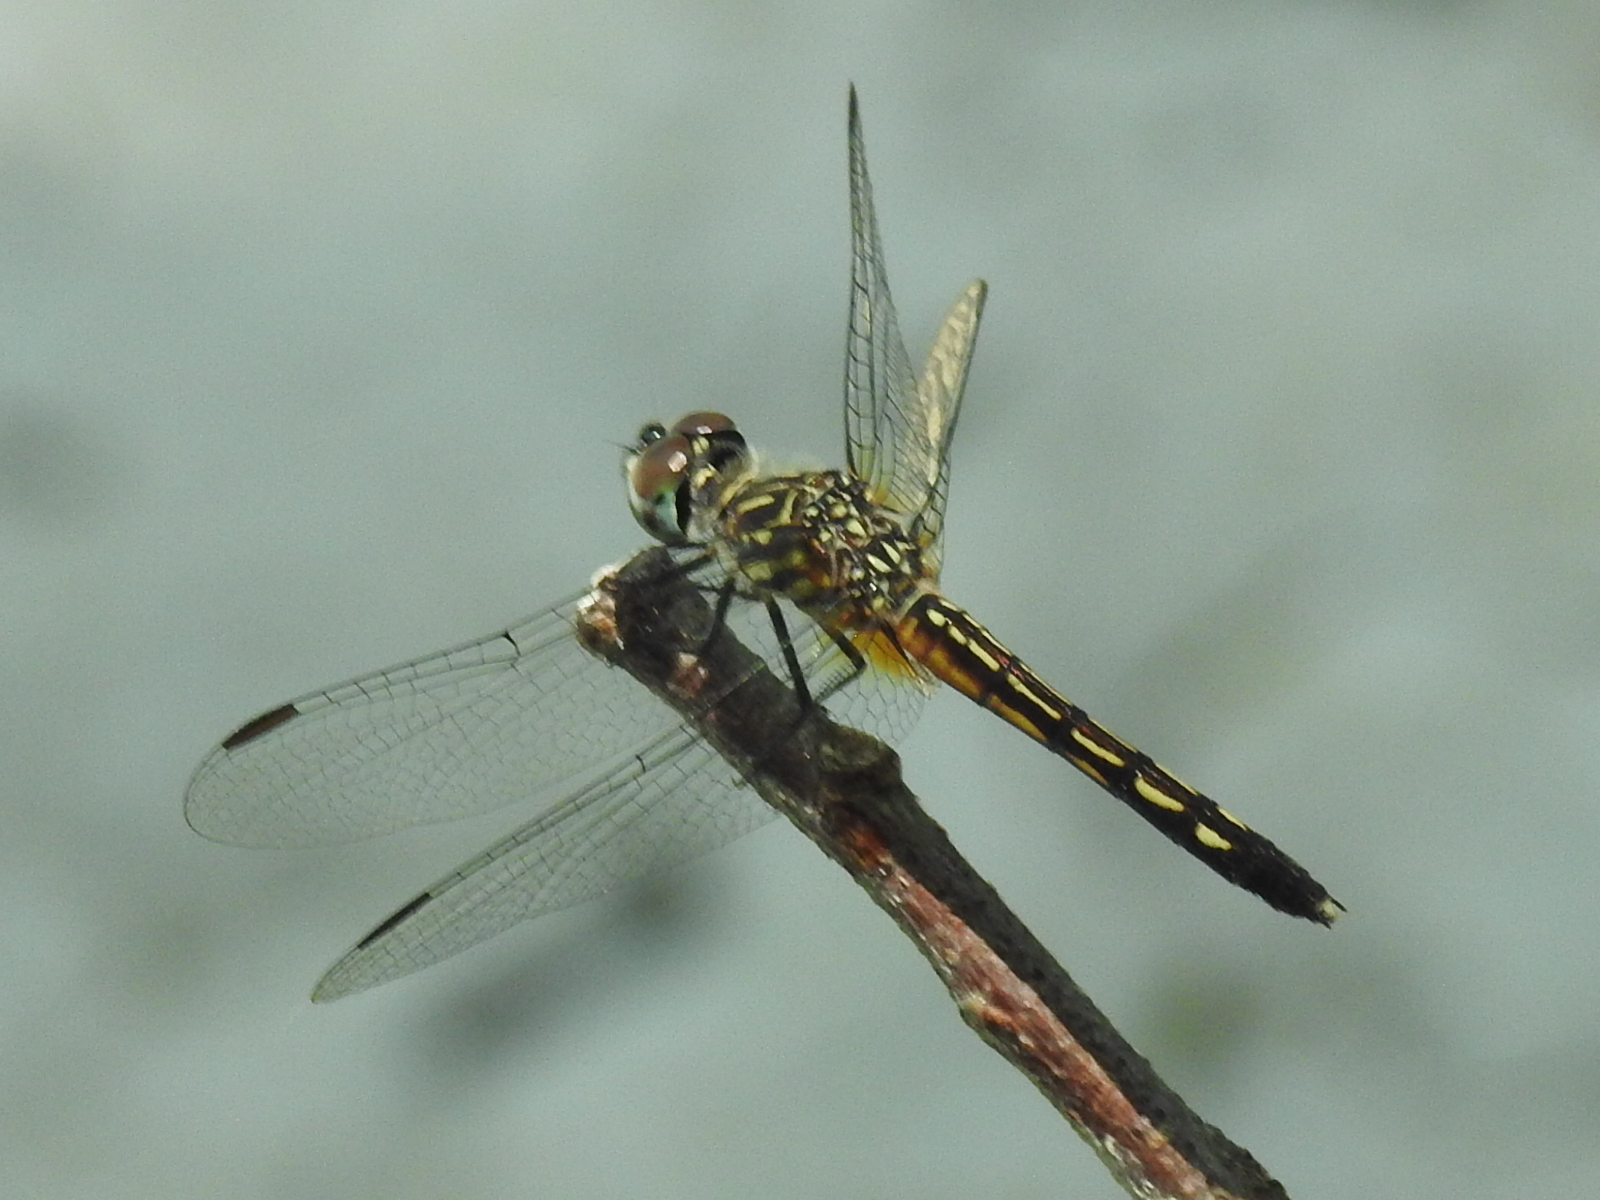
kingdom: Animalia
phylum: Arthropoda
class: Insecta
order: Odonata
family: Libellulidae
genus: Pachydiplax
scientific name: Pachydiplax longipennis
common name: Blue dasher
